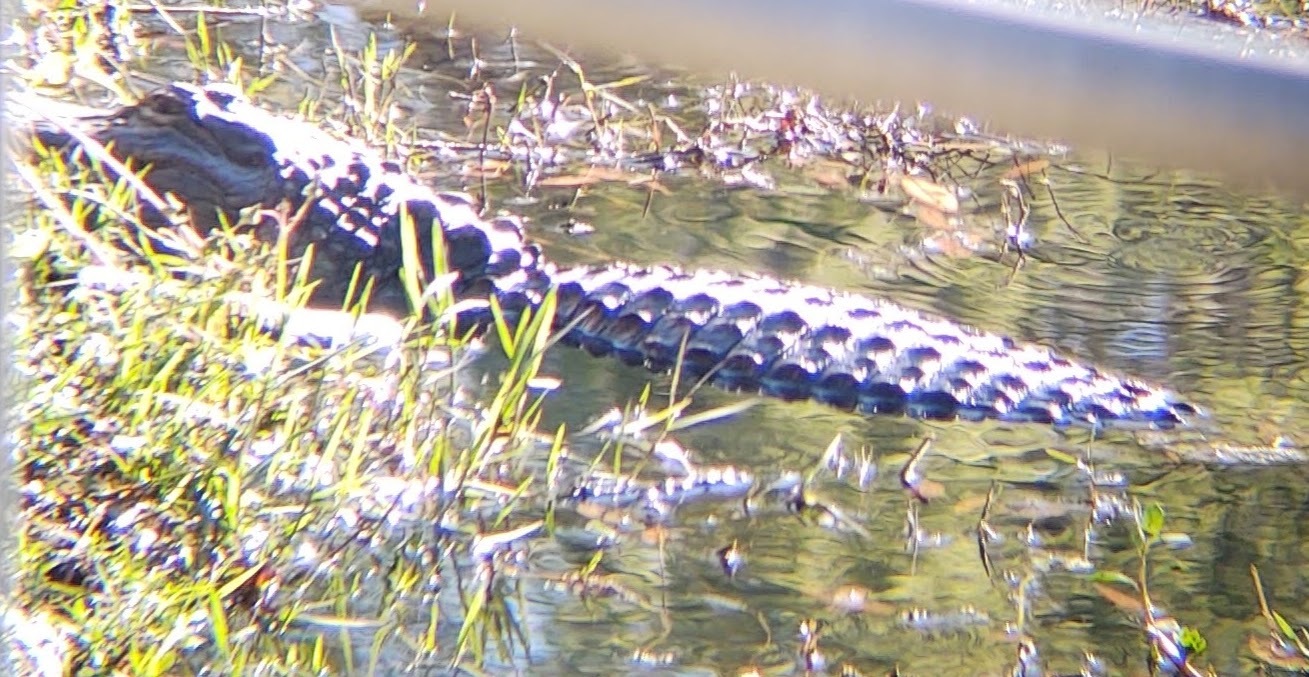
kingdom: Animalia
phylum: Chordata
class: Crocodylia
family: Alligatoridae
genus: Alligator
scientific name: Alligator mississippiensis
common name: American alligator
